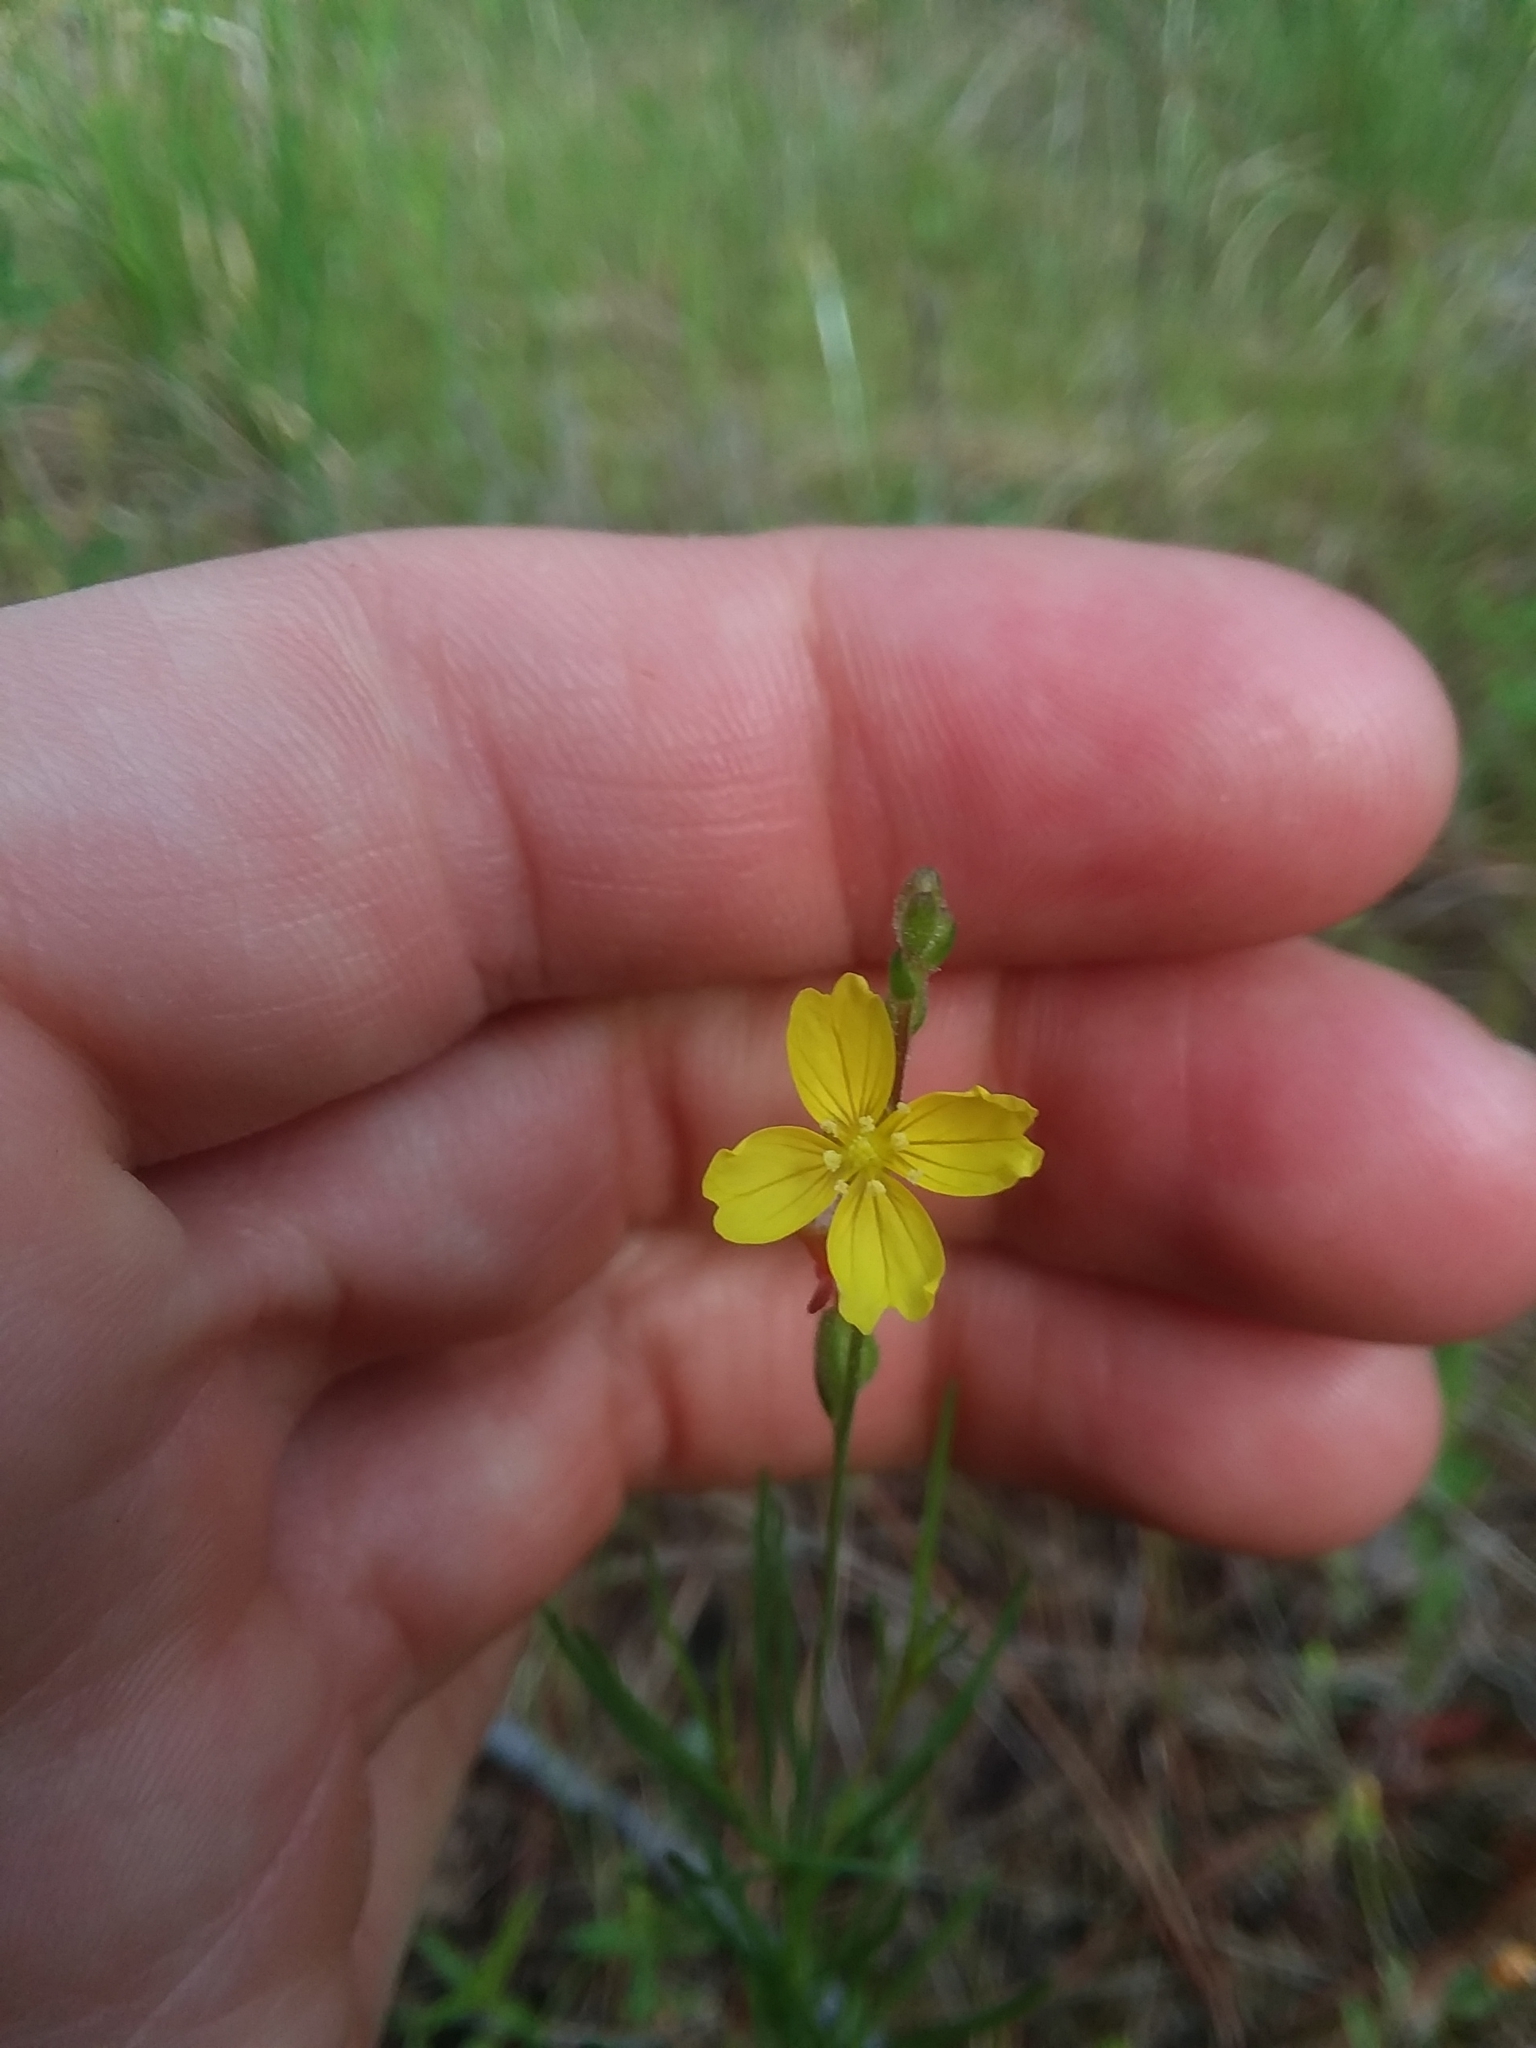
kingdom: Plantae
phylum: Tracheophyta
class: Magnoliopsida
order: Myrtales
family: Onagraceae
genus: Oenothera
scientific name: Oenothera linifolia
